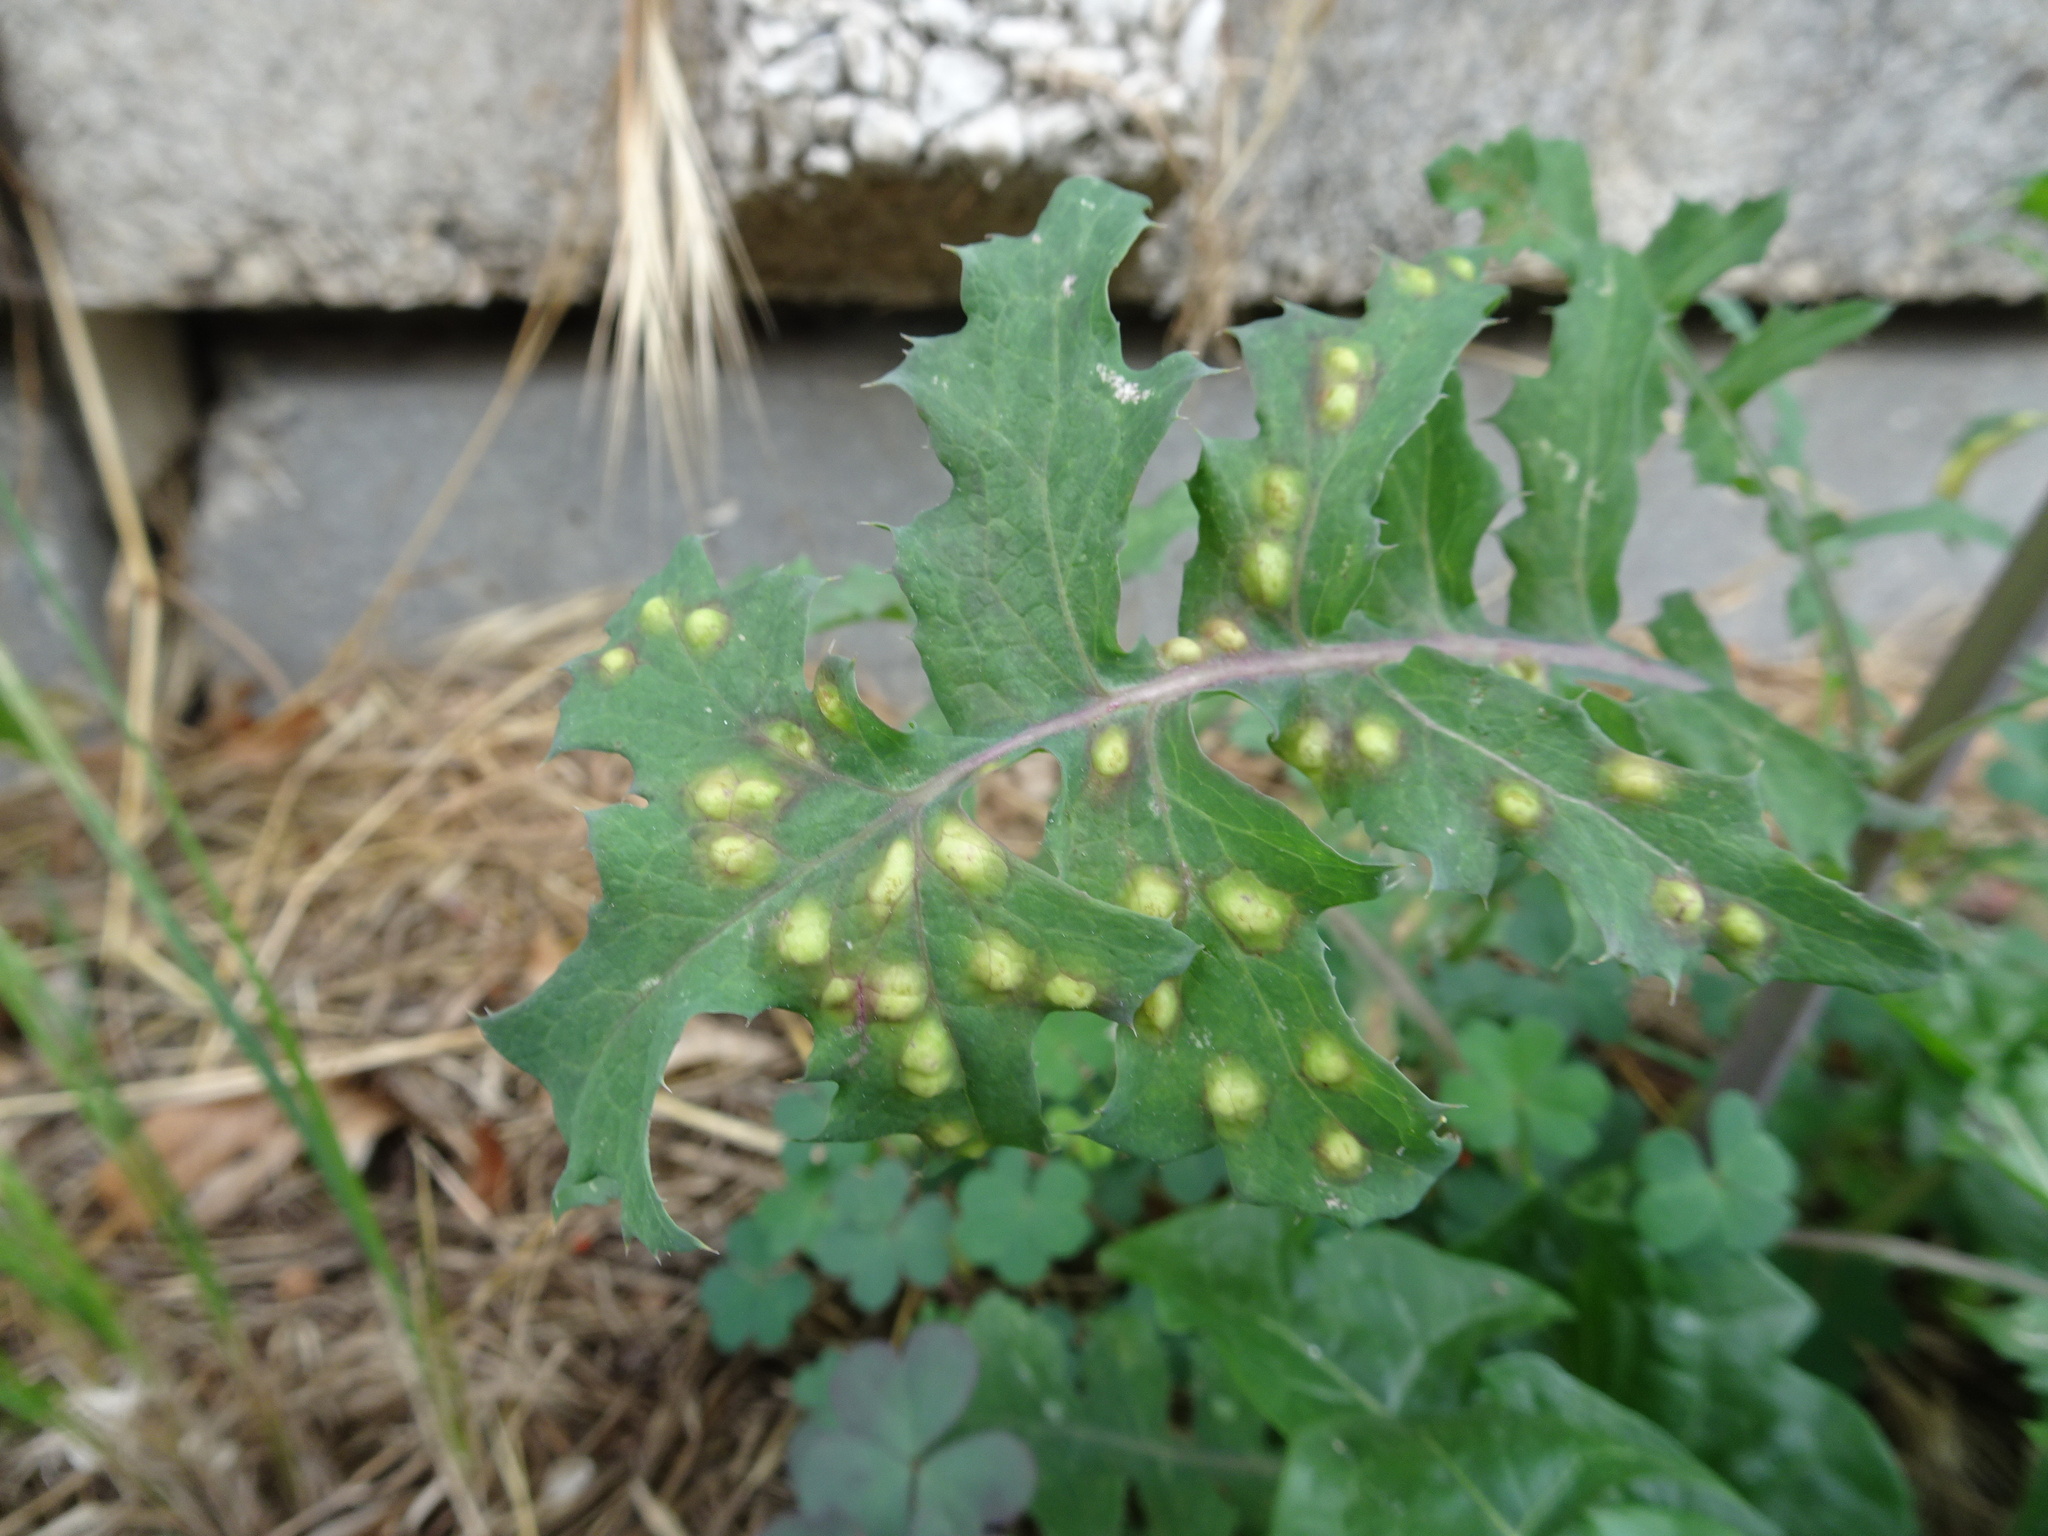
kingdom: Animalia
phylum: Arthropoda
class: Insecta
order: Diptera
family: Cecidomyiidae
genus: Cystiphora
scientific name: Cystiphora sonchi
